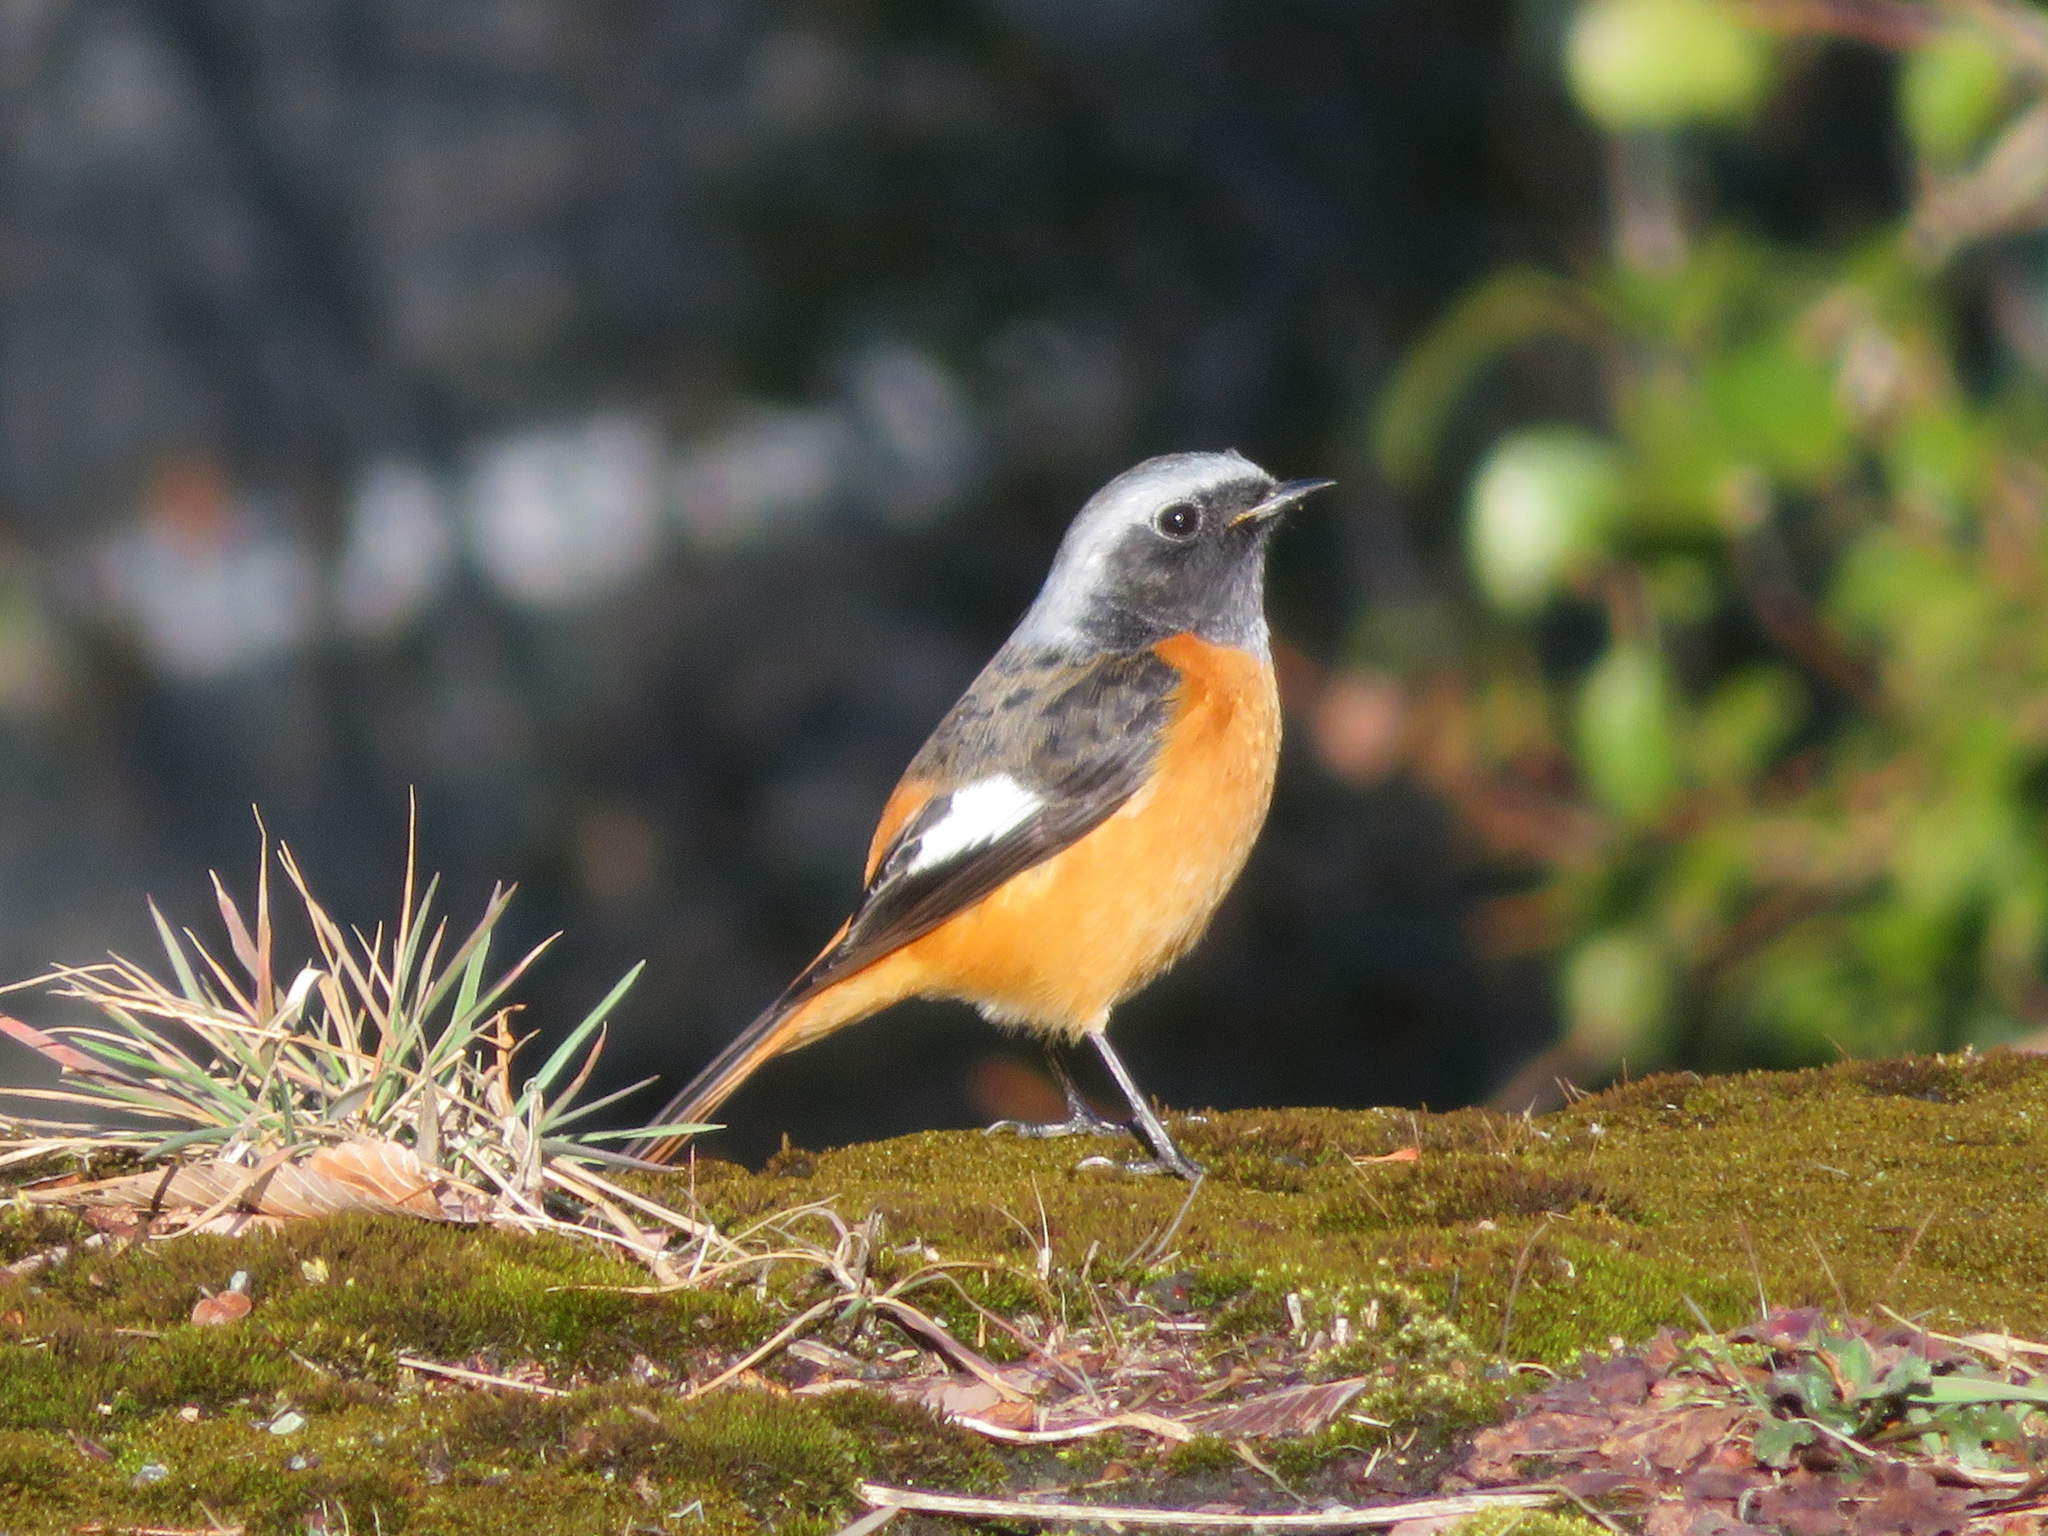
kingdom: Animalia
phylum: Chordata
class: Aves
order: Passeriformes
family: Muscicapidae
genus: Phoenicurus
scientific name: Phoenicurus auroreus
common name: Daurian redstart
